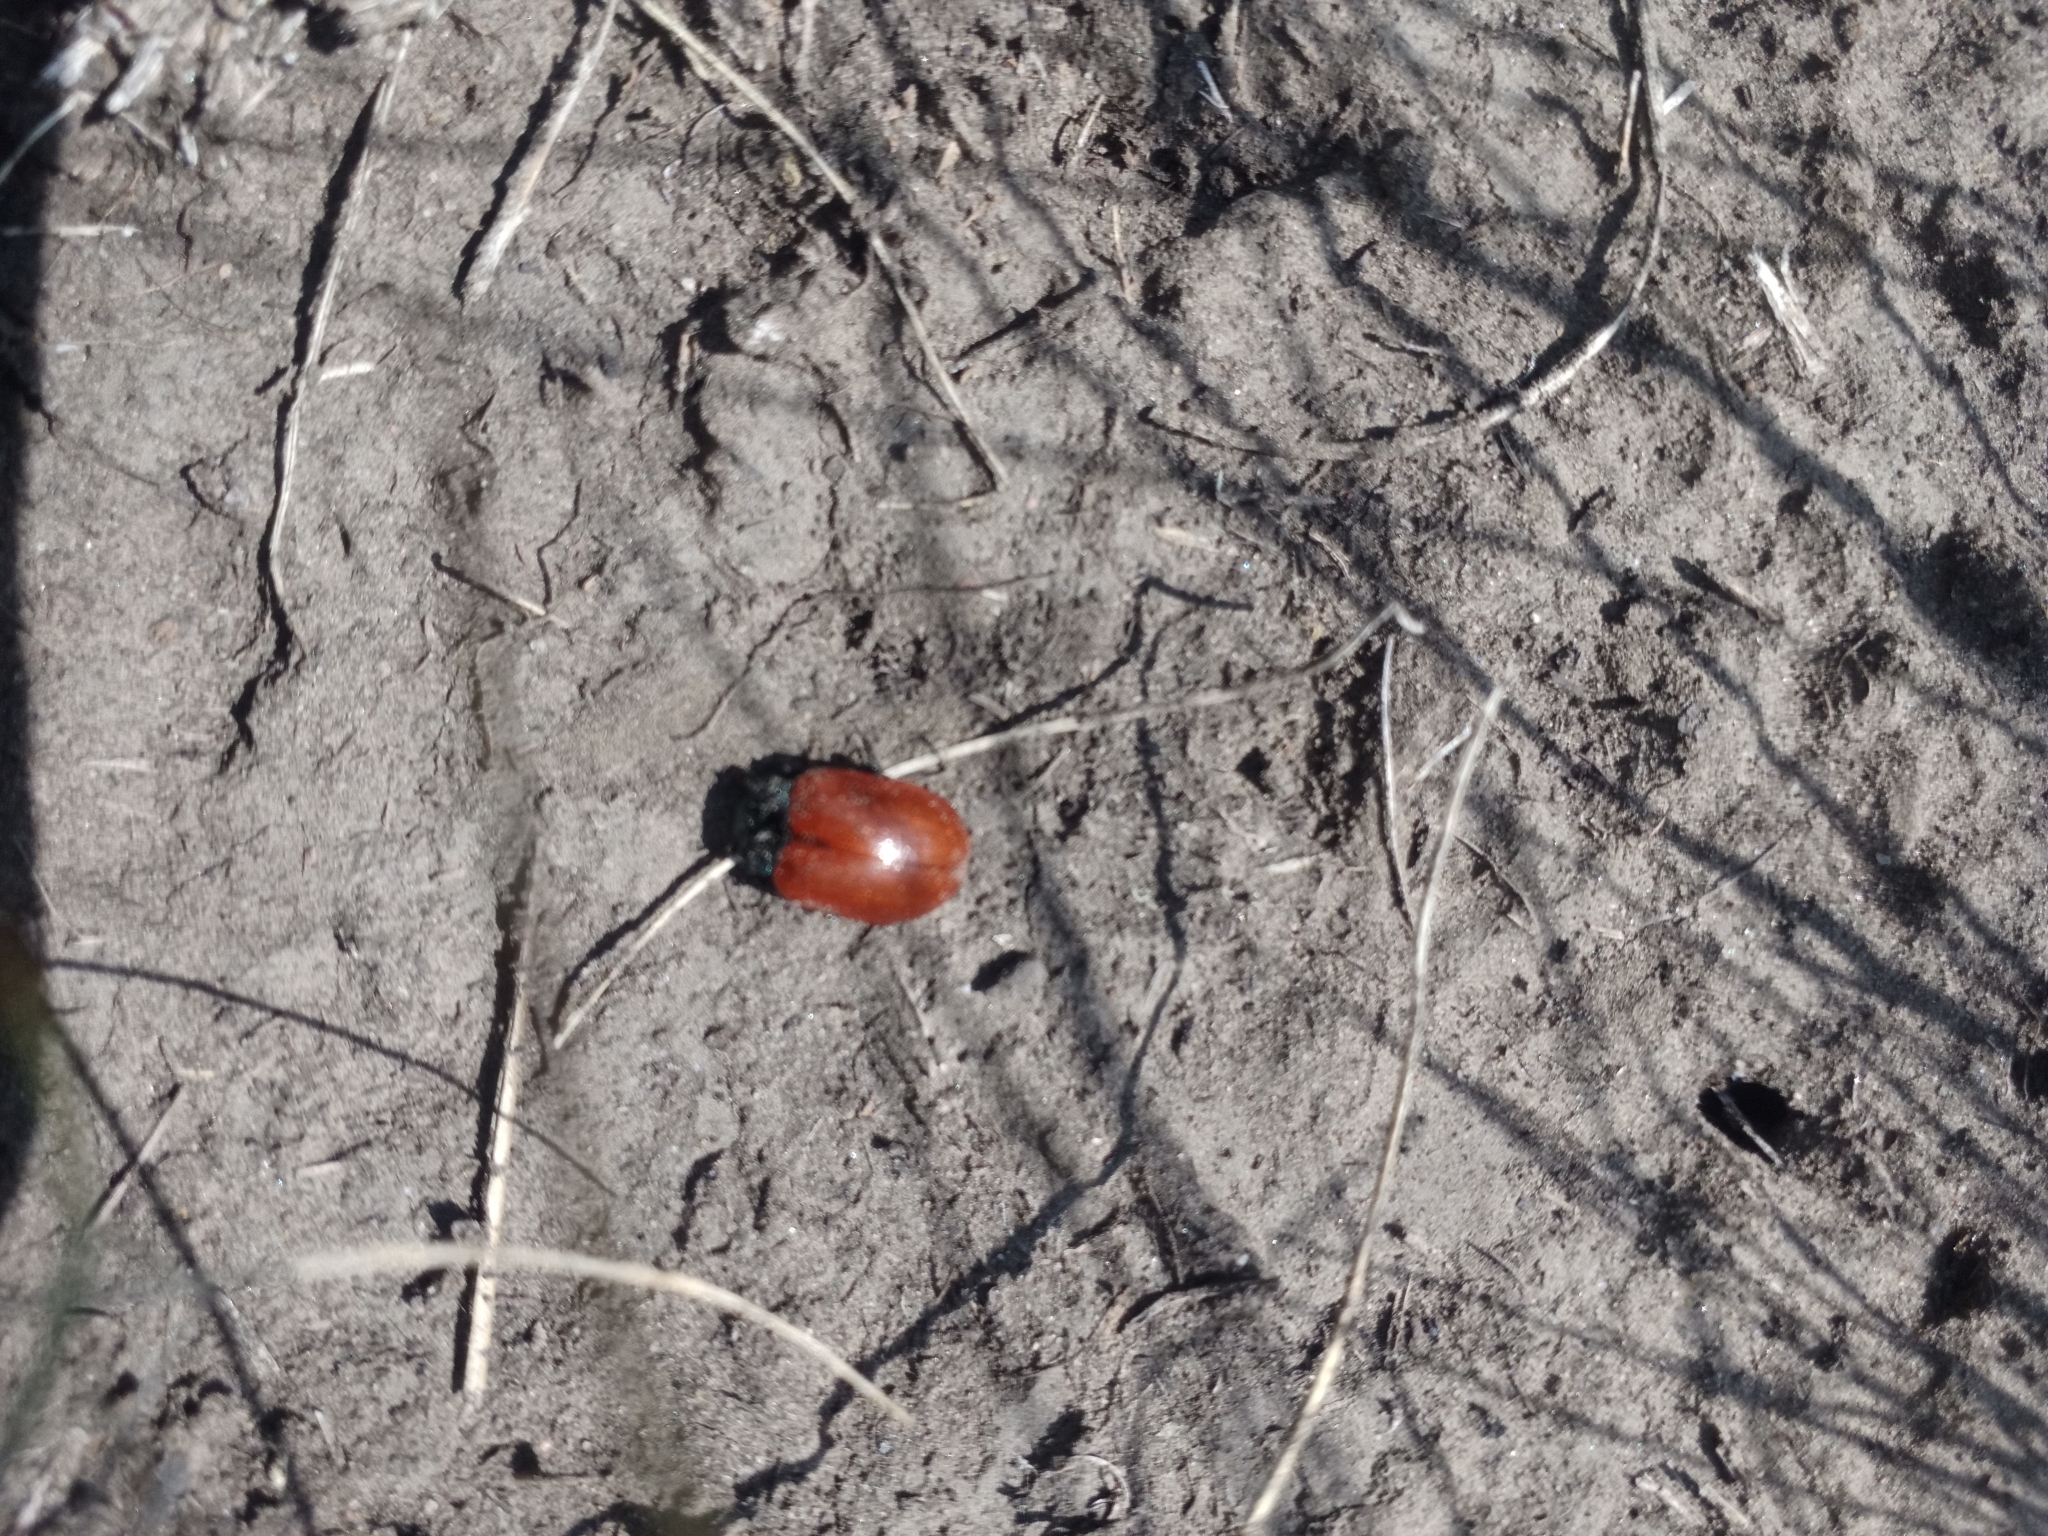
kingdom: Animalia
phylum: Arthropoda
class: Insecta
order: Coleoptera
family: Chrysomelidae
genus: Chrysomela
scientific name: Chrysomela populi
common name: Red poplar leaf beetle
